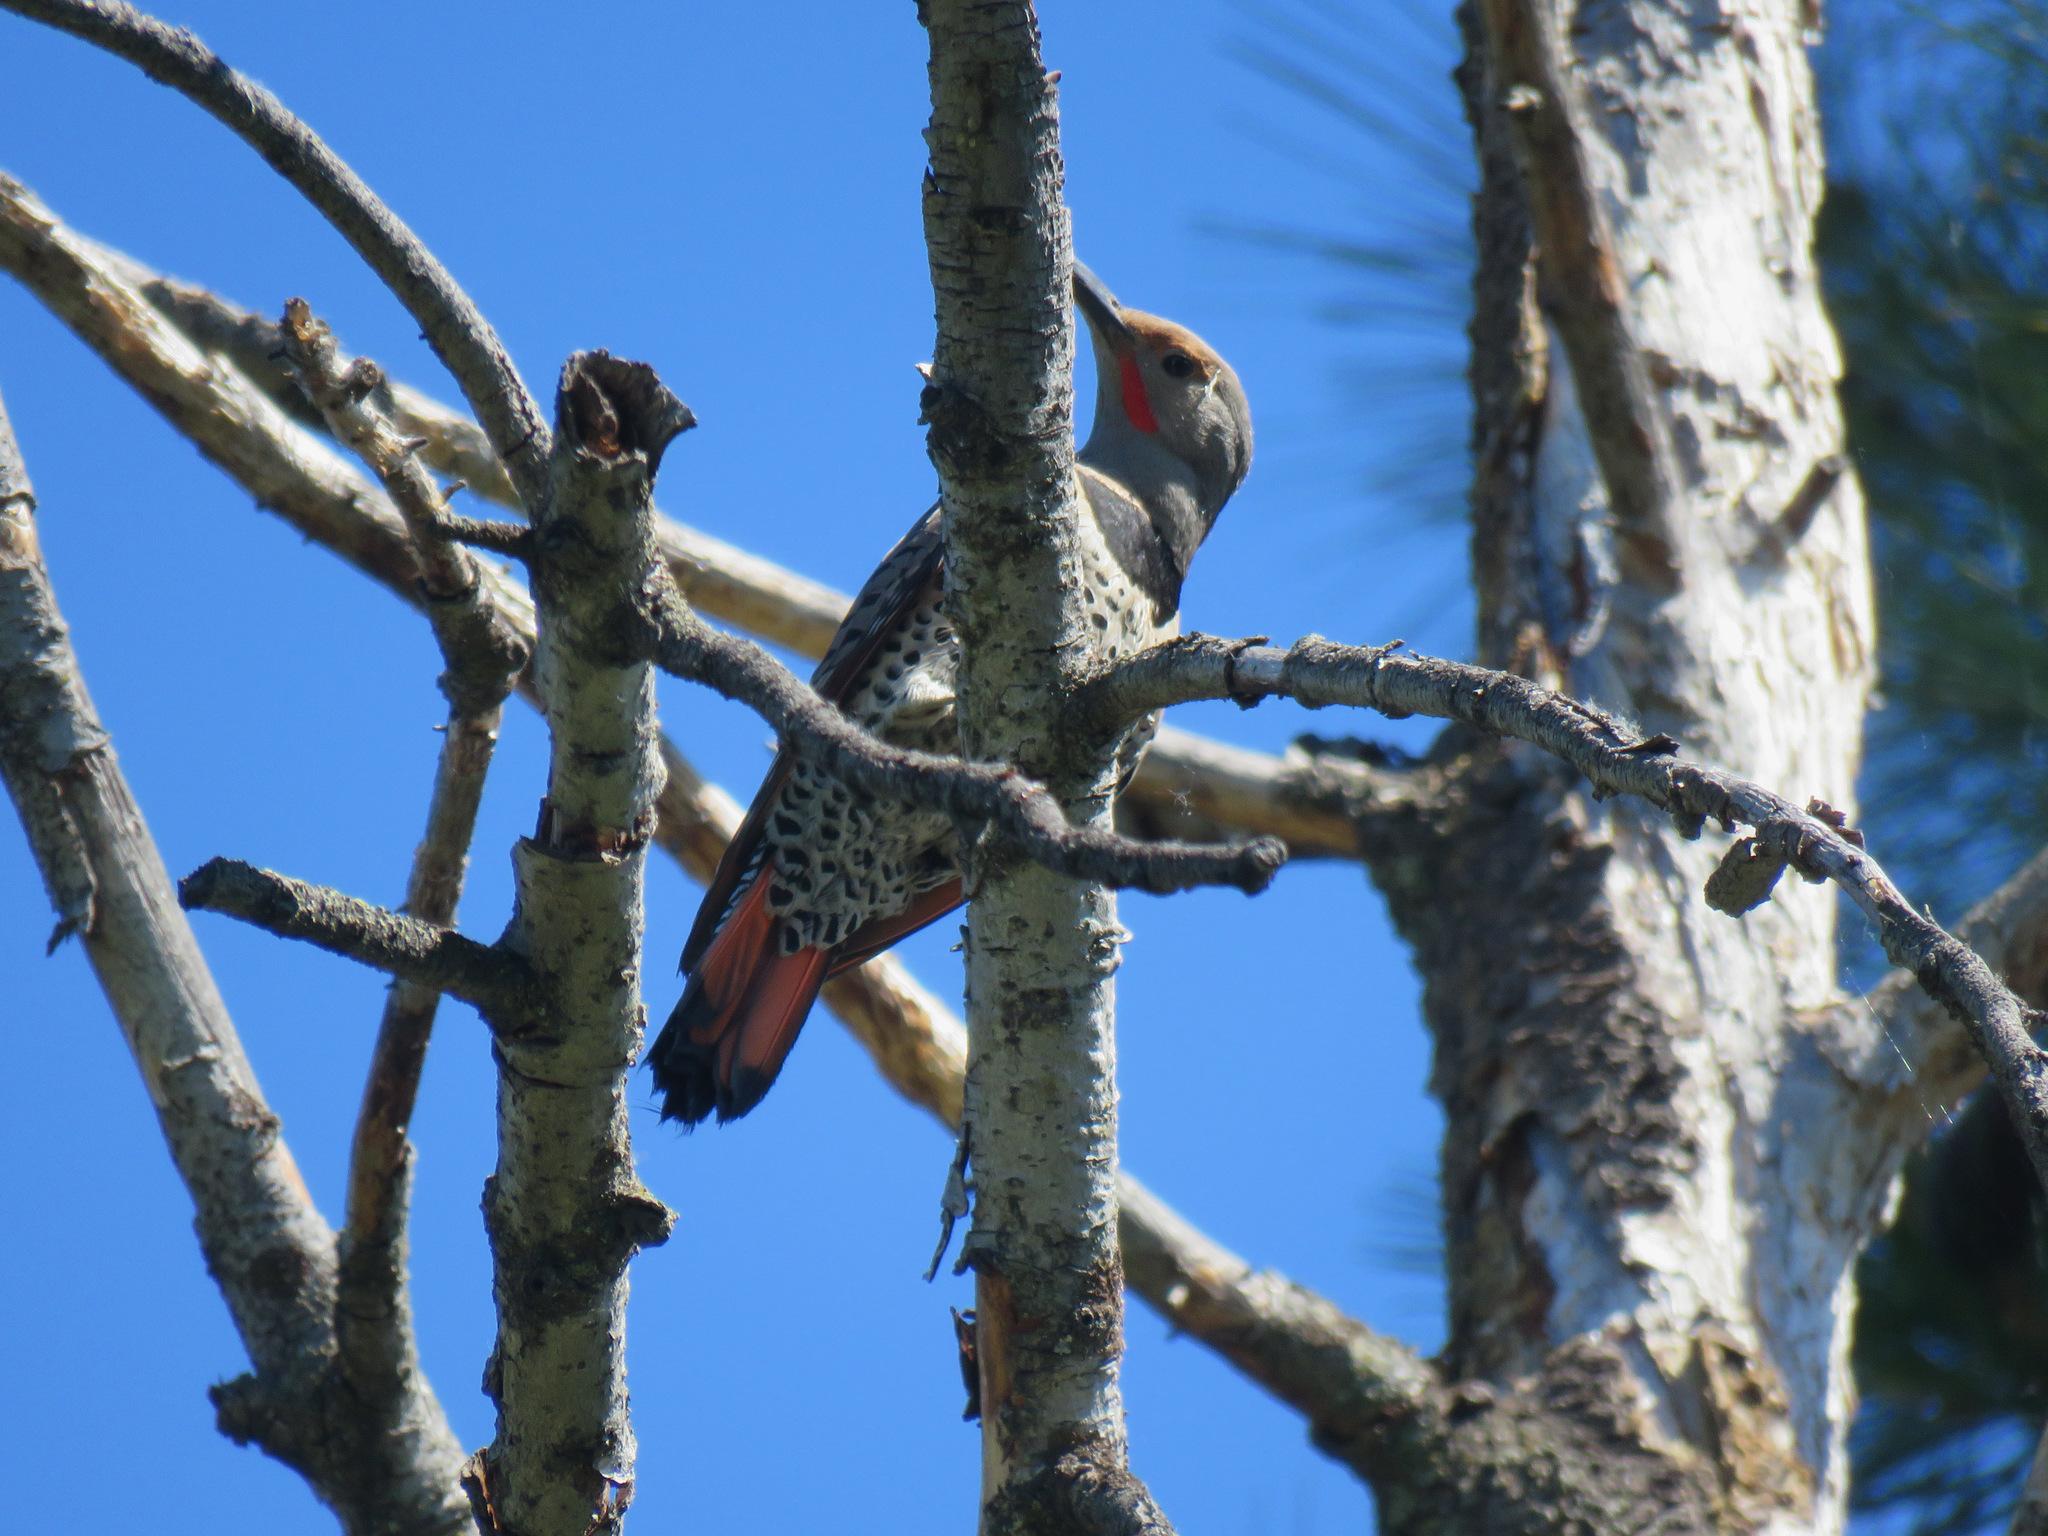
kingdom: Animalia
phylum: Chordata
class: Aves
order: Piciformes
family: Picidae
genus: Colaptes
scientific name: Colaptes auratus
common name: Northern flicker
